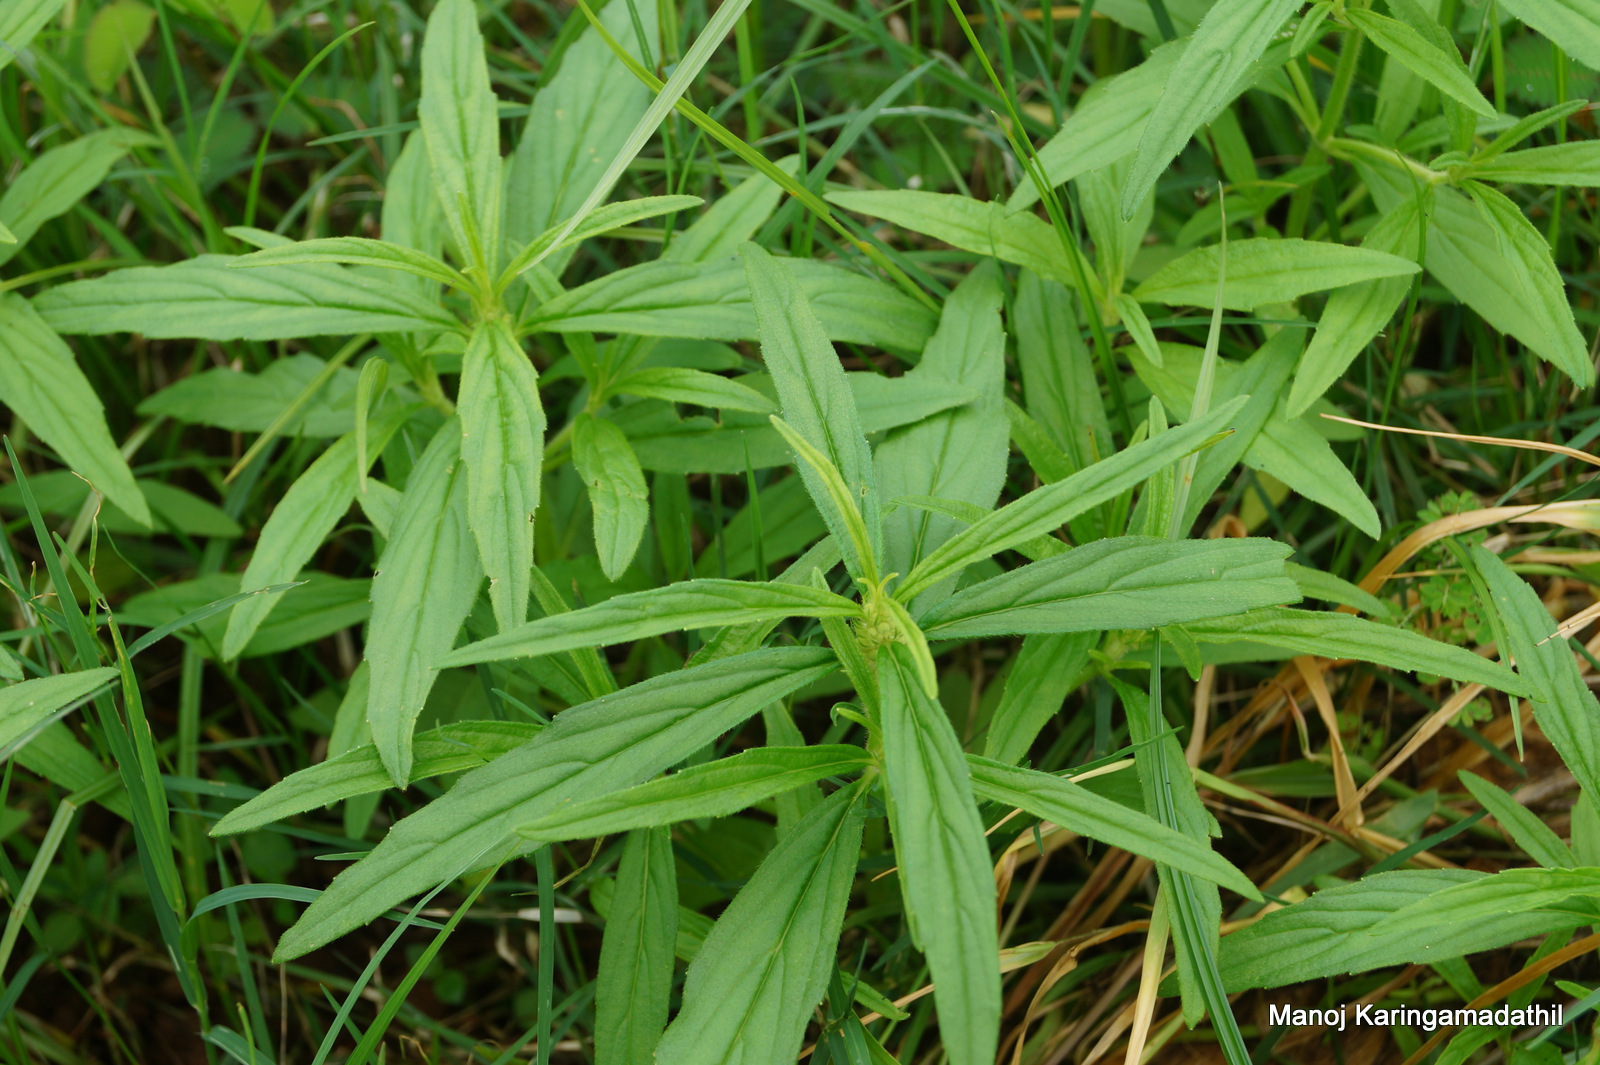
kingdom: Plantae
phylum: Tracheophyta
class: Magnoliopsida
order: Lamiales
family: Lamiaceae
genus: Leucas
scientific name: Leucas aspera
